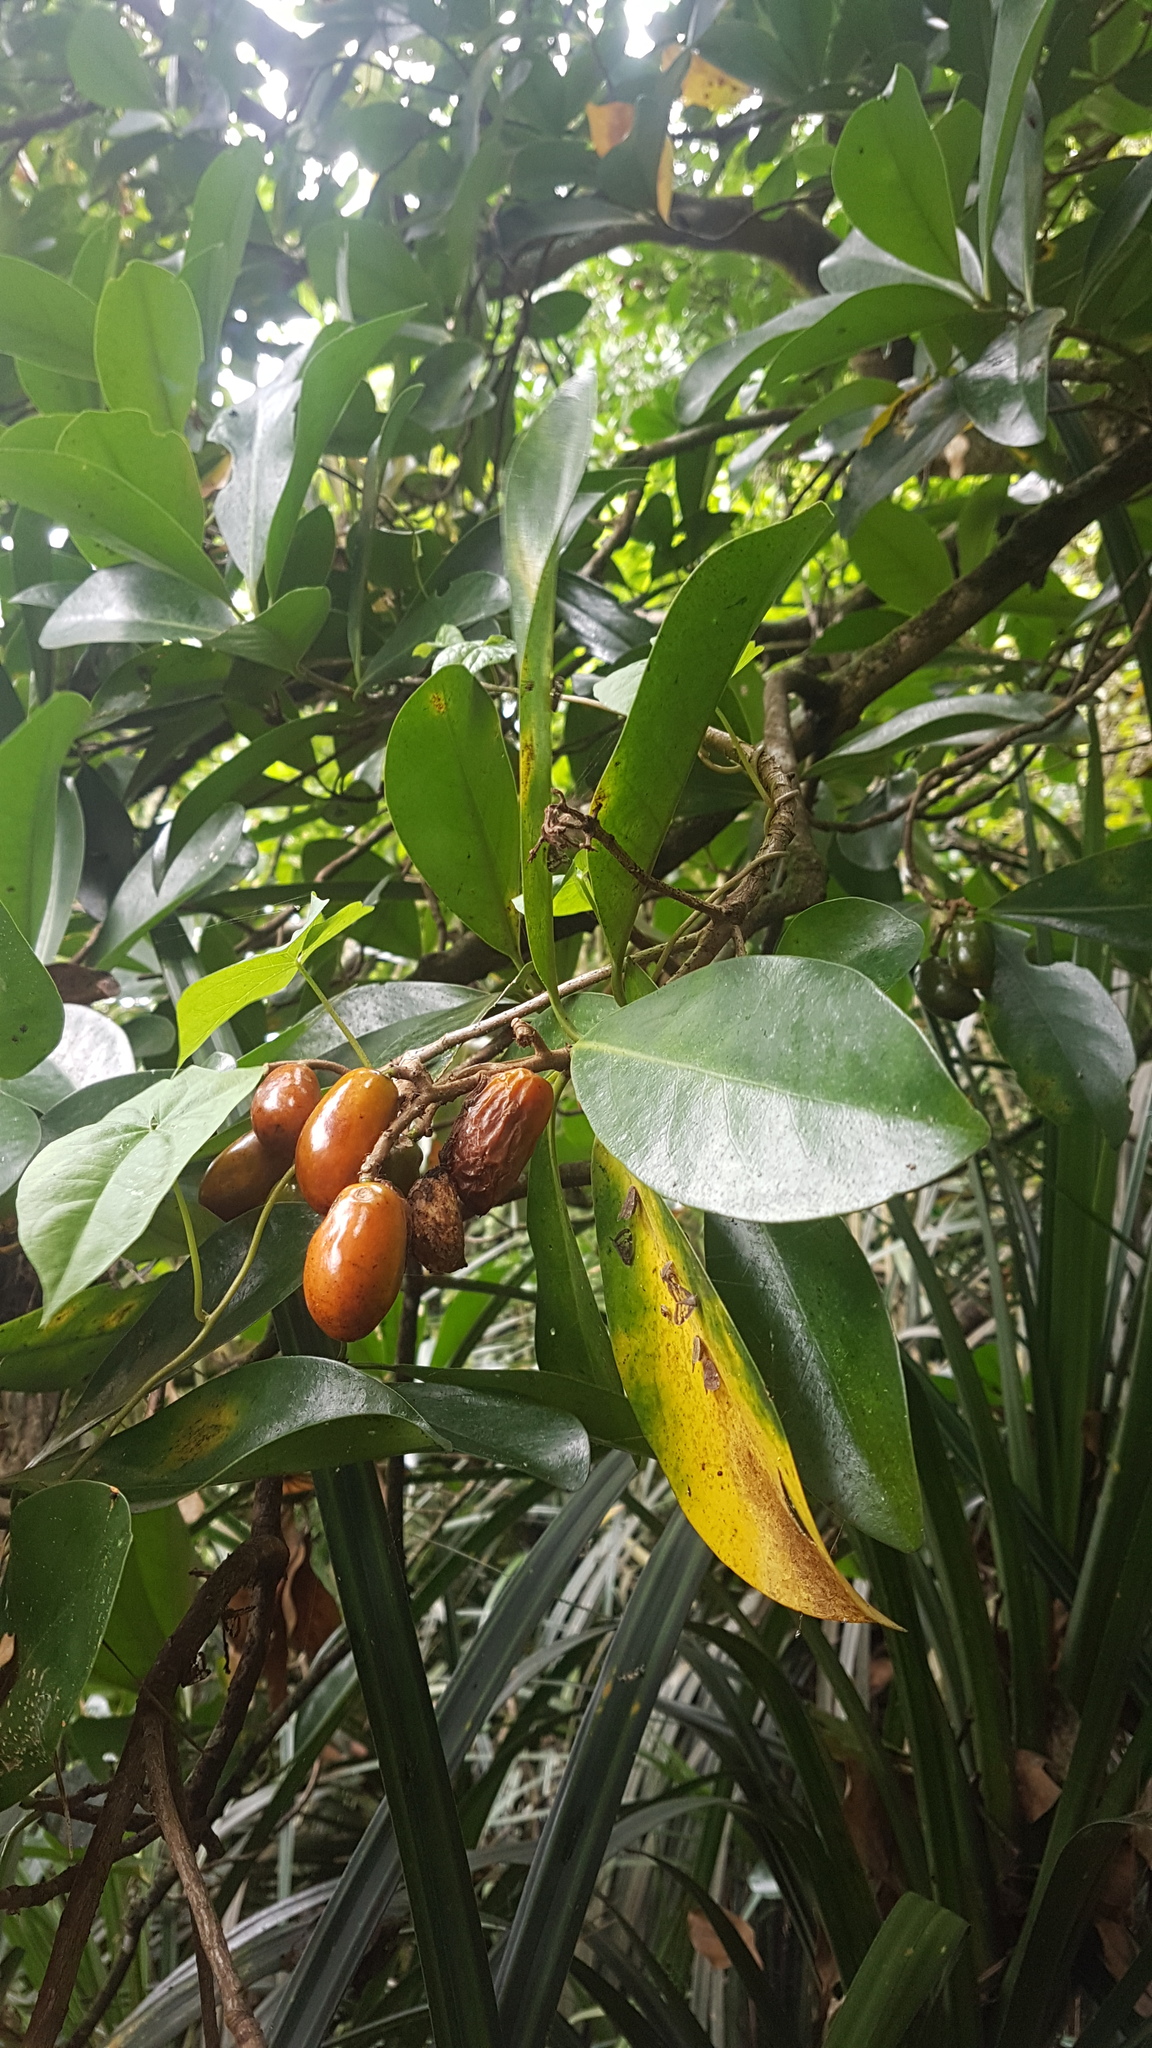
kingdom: Plantae
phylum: Tracheophyta
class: Magnoliopsida
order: Cucurbitales
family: Corynocarpaceae
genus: Corynocarpus
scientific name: Corynocarpus laevigatus
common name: New zealand laurel
